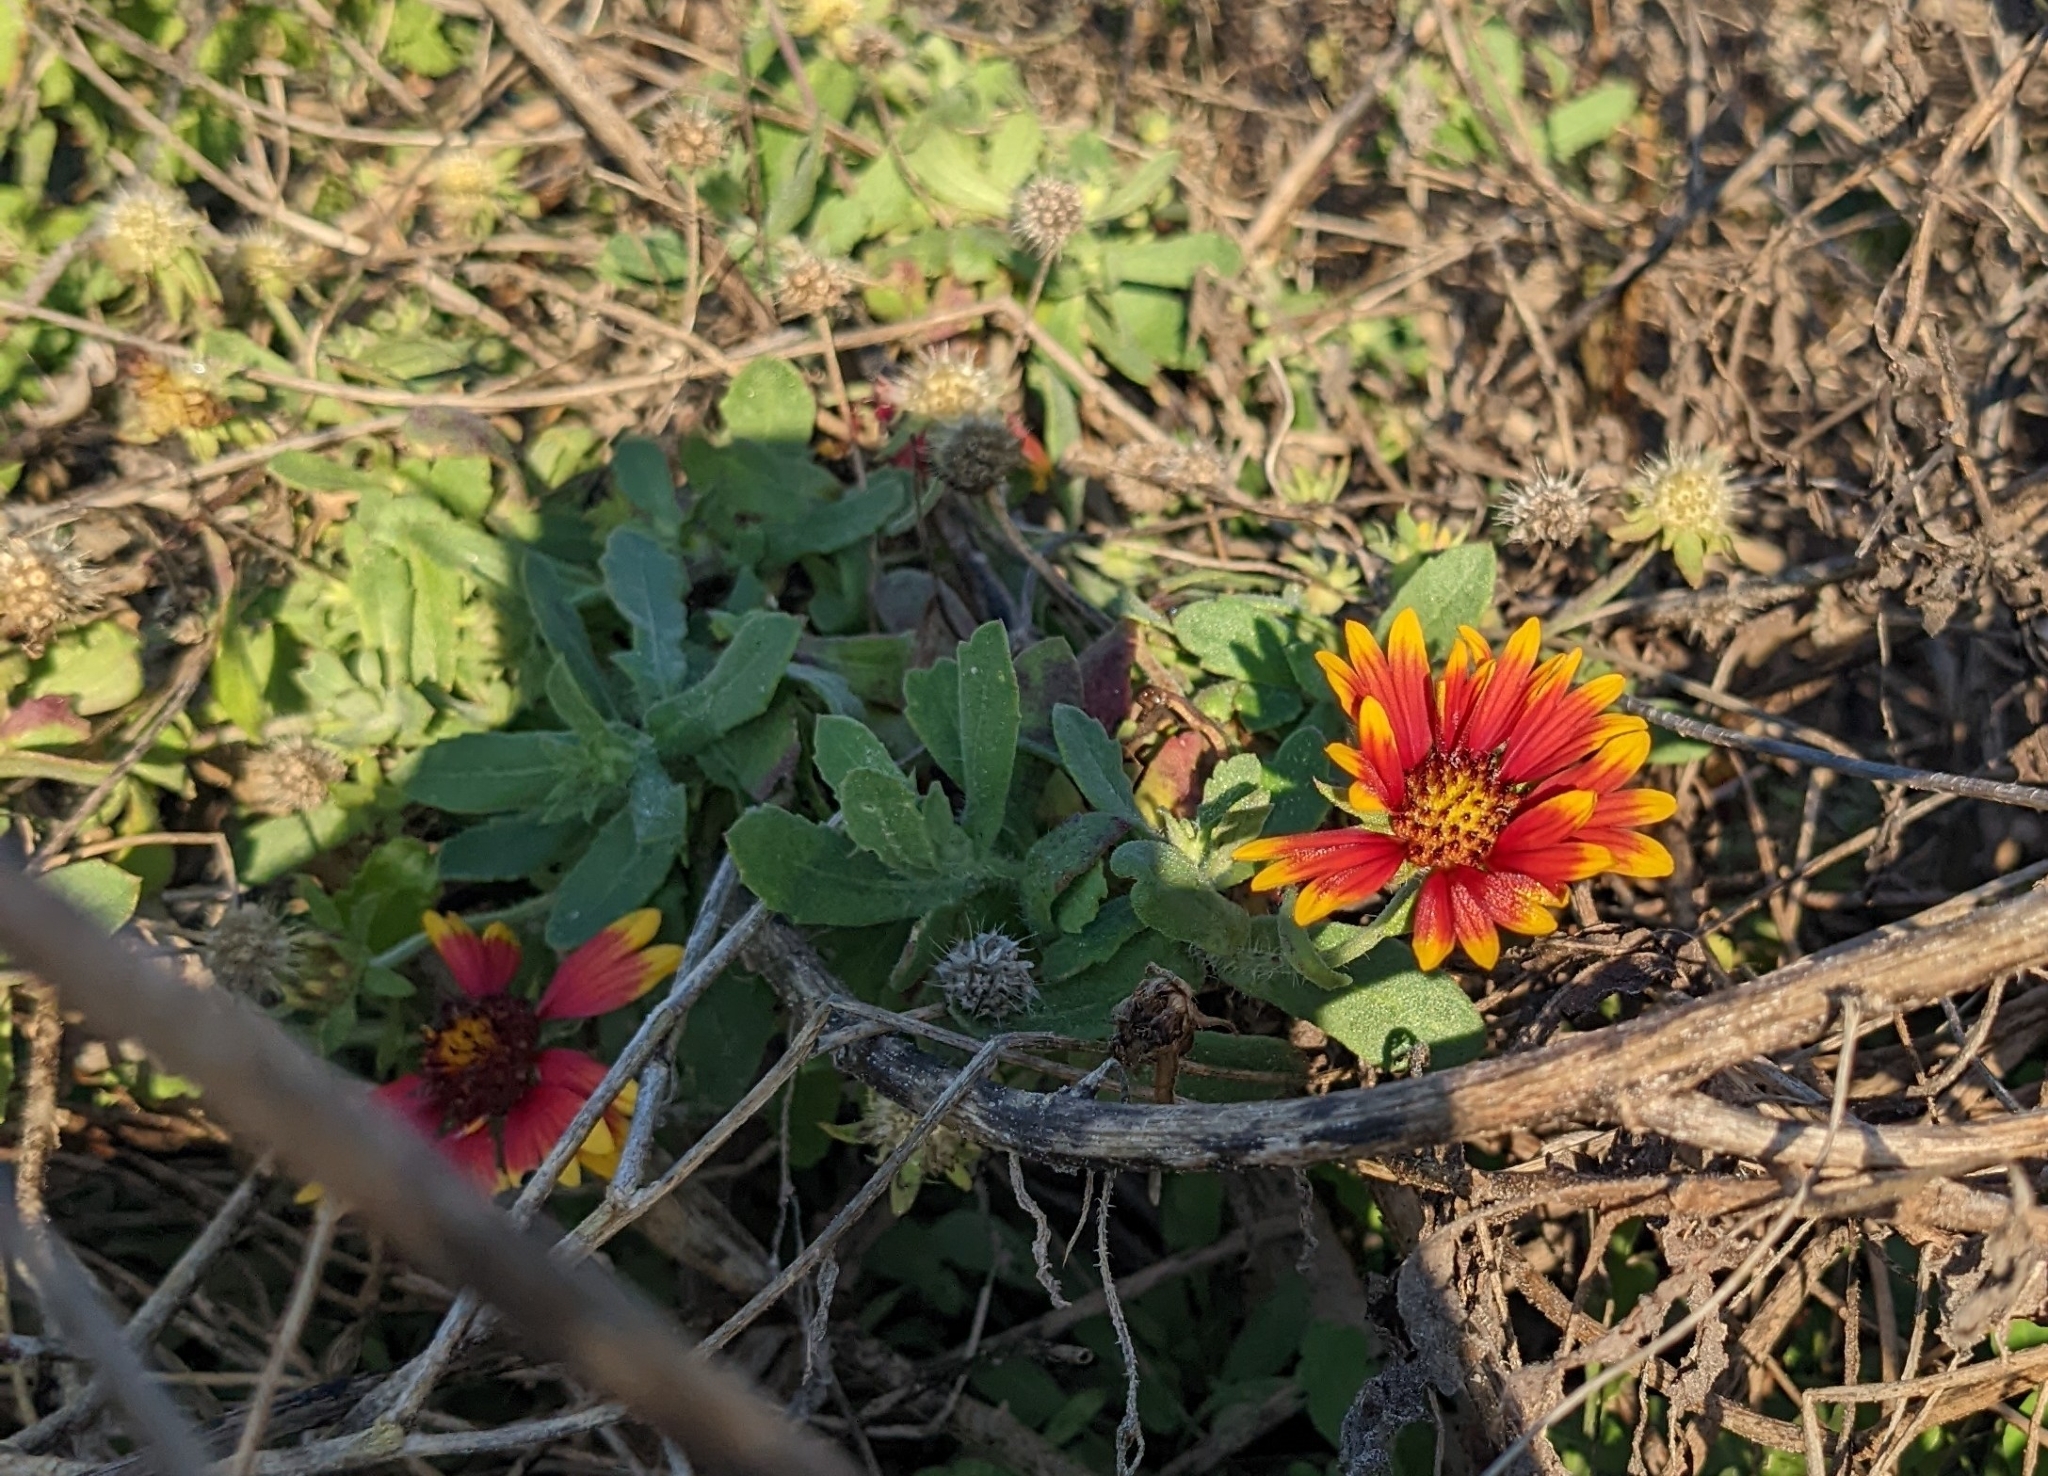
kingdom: Plantae
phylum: Tracheophyta
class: Magnoliopsida
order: Asterales
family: Asteraceae
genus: Gaillardia
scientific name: Gaillardia pulchella
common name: Firewheel
